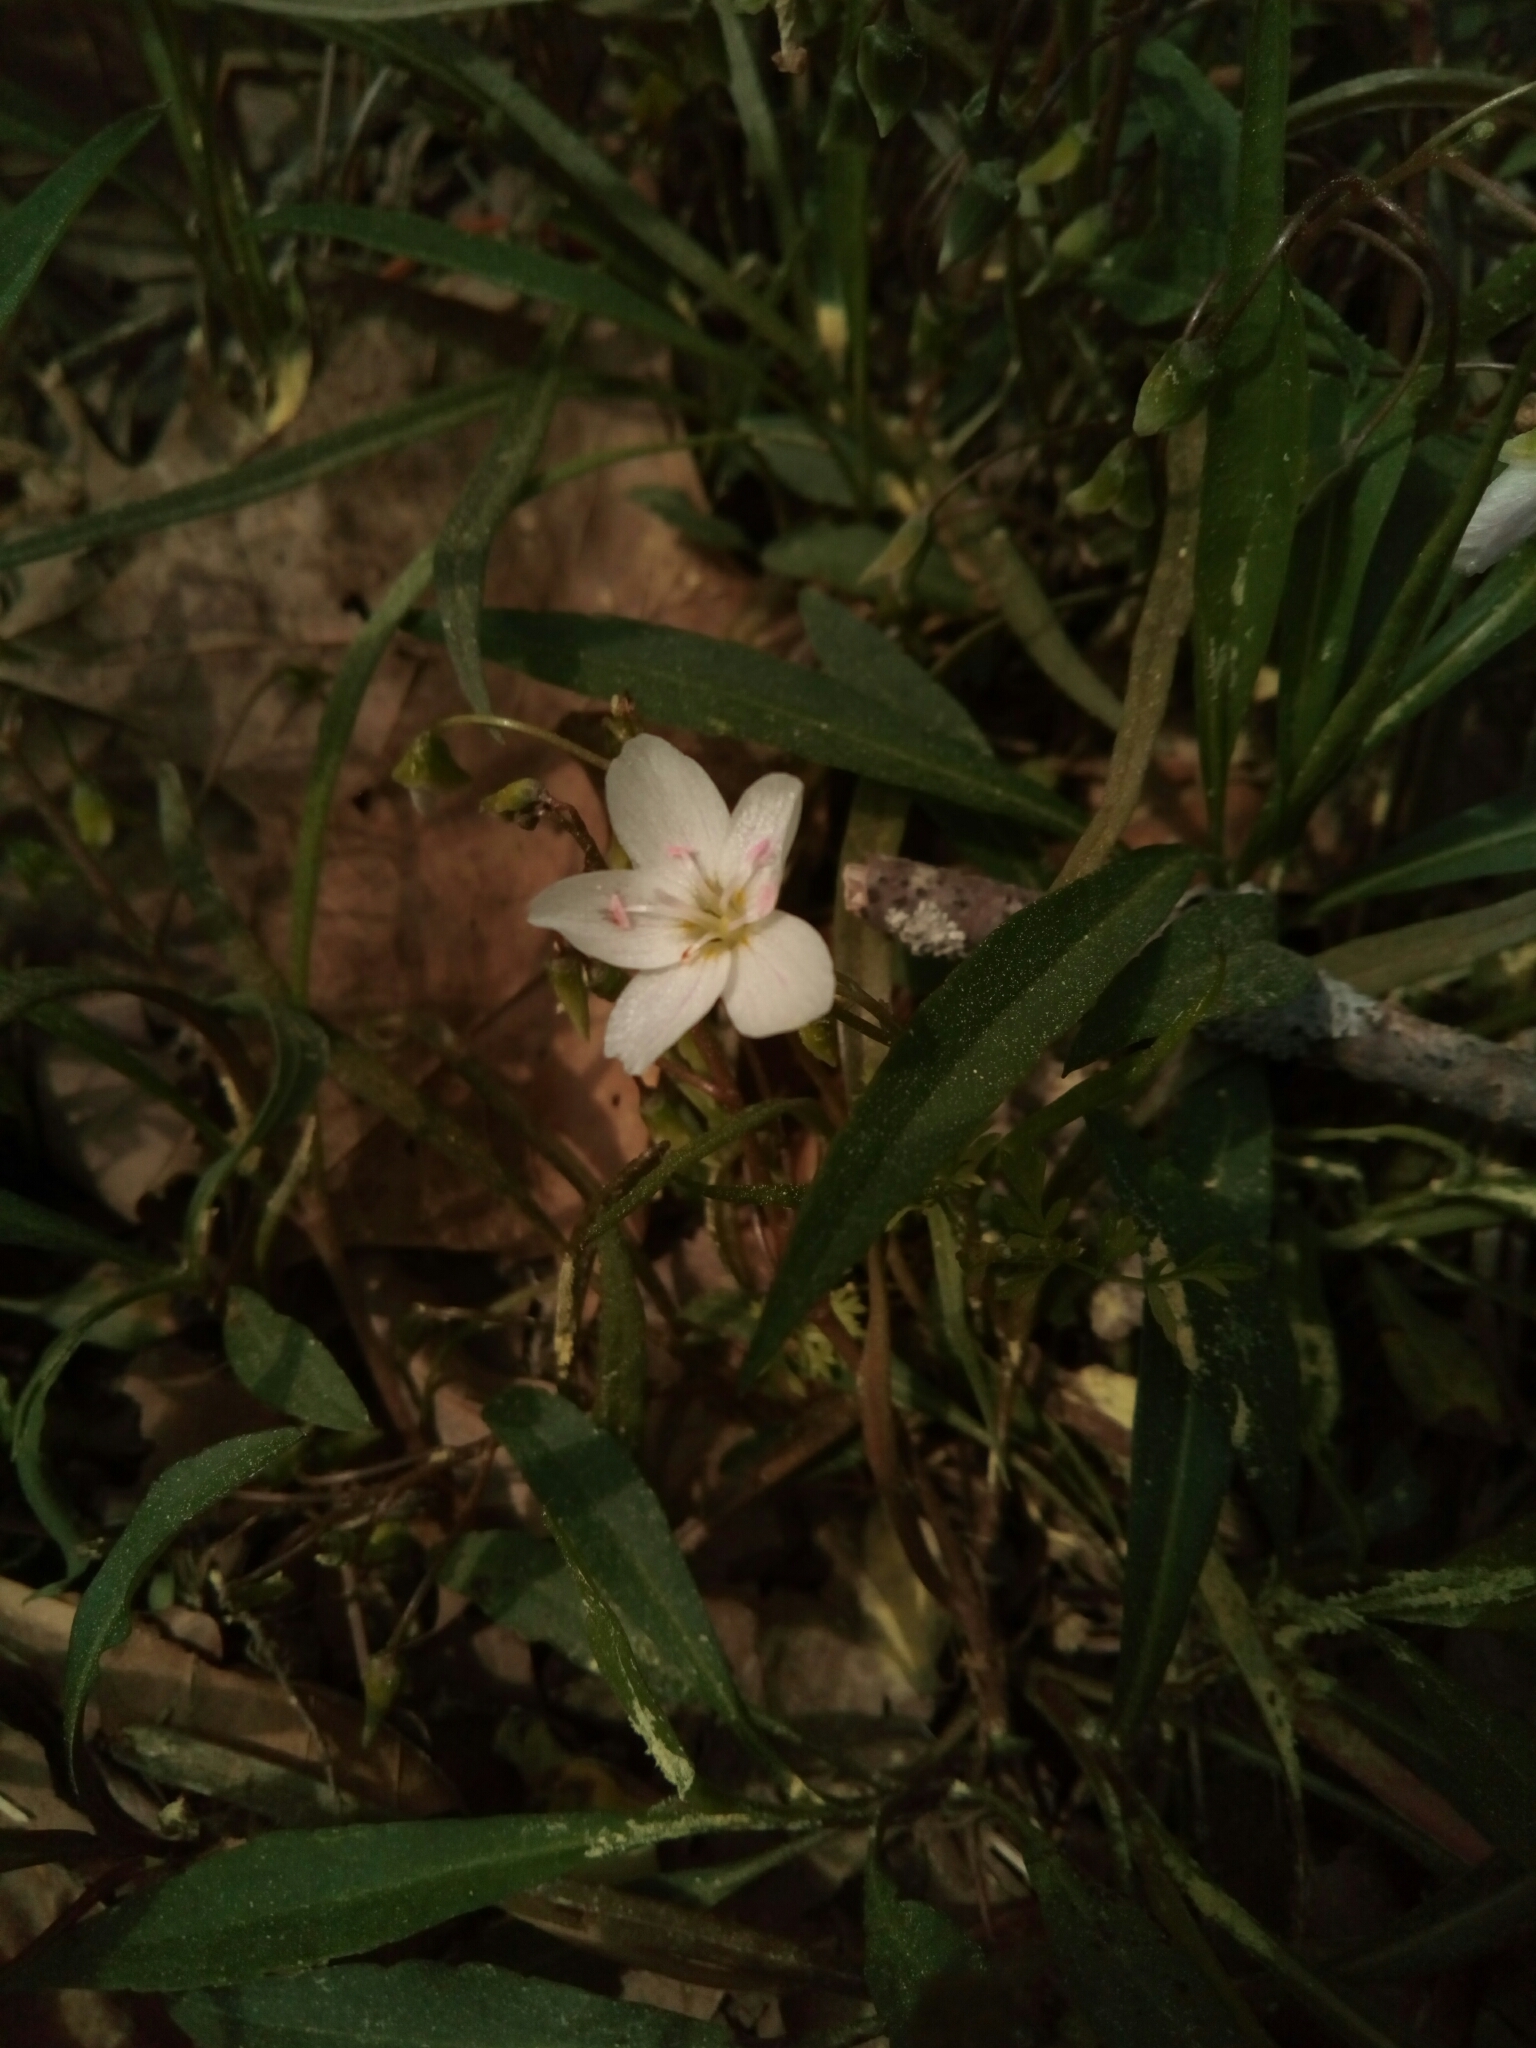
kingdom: Plantae
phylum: Tracheophyta
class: Magnoliopsida
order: Caryophyllales
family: Montiaceae
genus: Claytonia
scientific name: Claytonia virginica
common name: Virginia springbeauty
